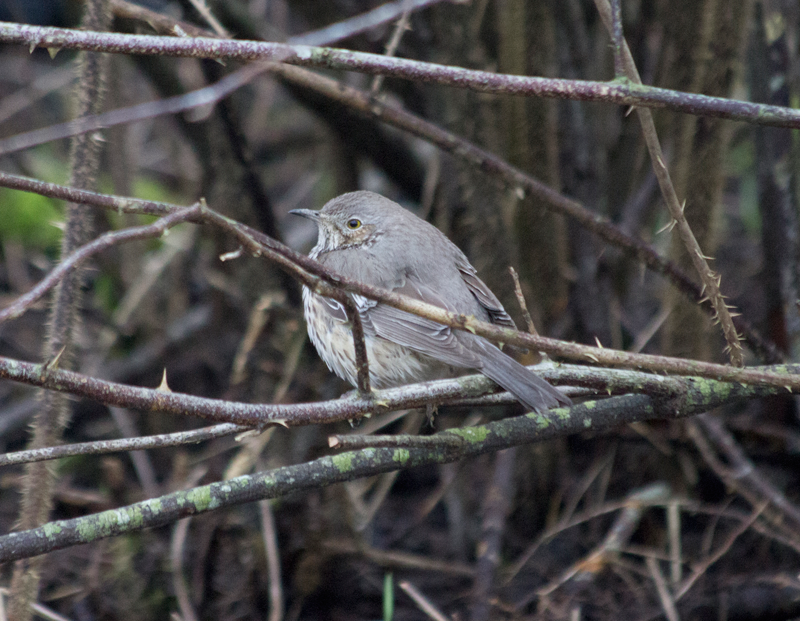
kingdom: Animalia
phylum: Chordata
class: Aves
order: Passeriformes
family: Mimidae
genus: Oreoscoptes
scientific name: Oreoscoptes montanus
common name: Sage thrasher
